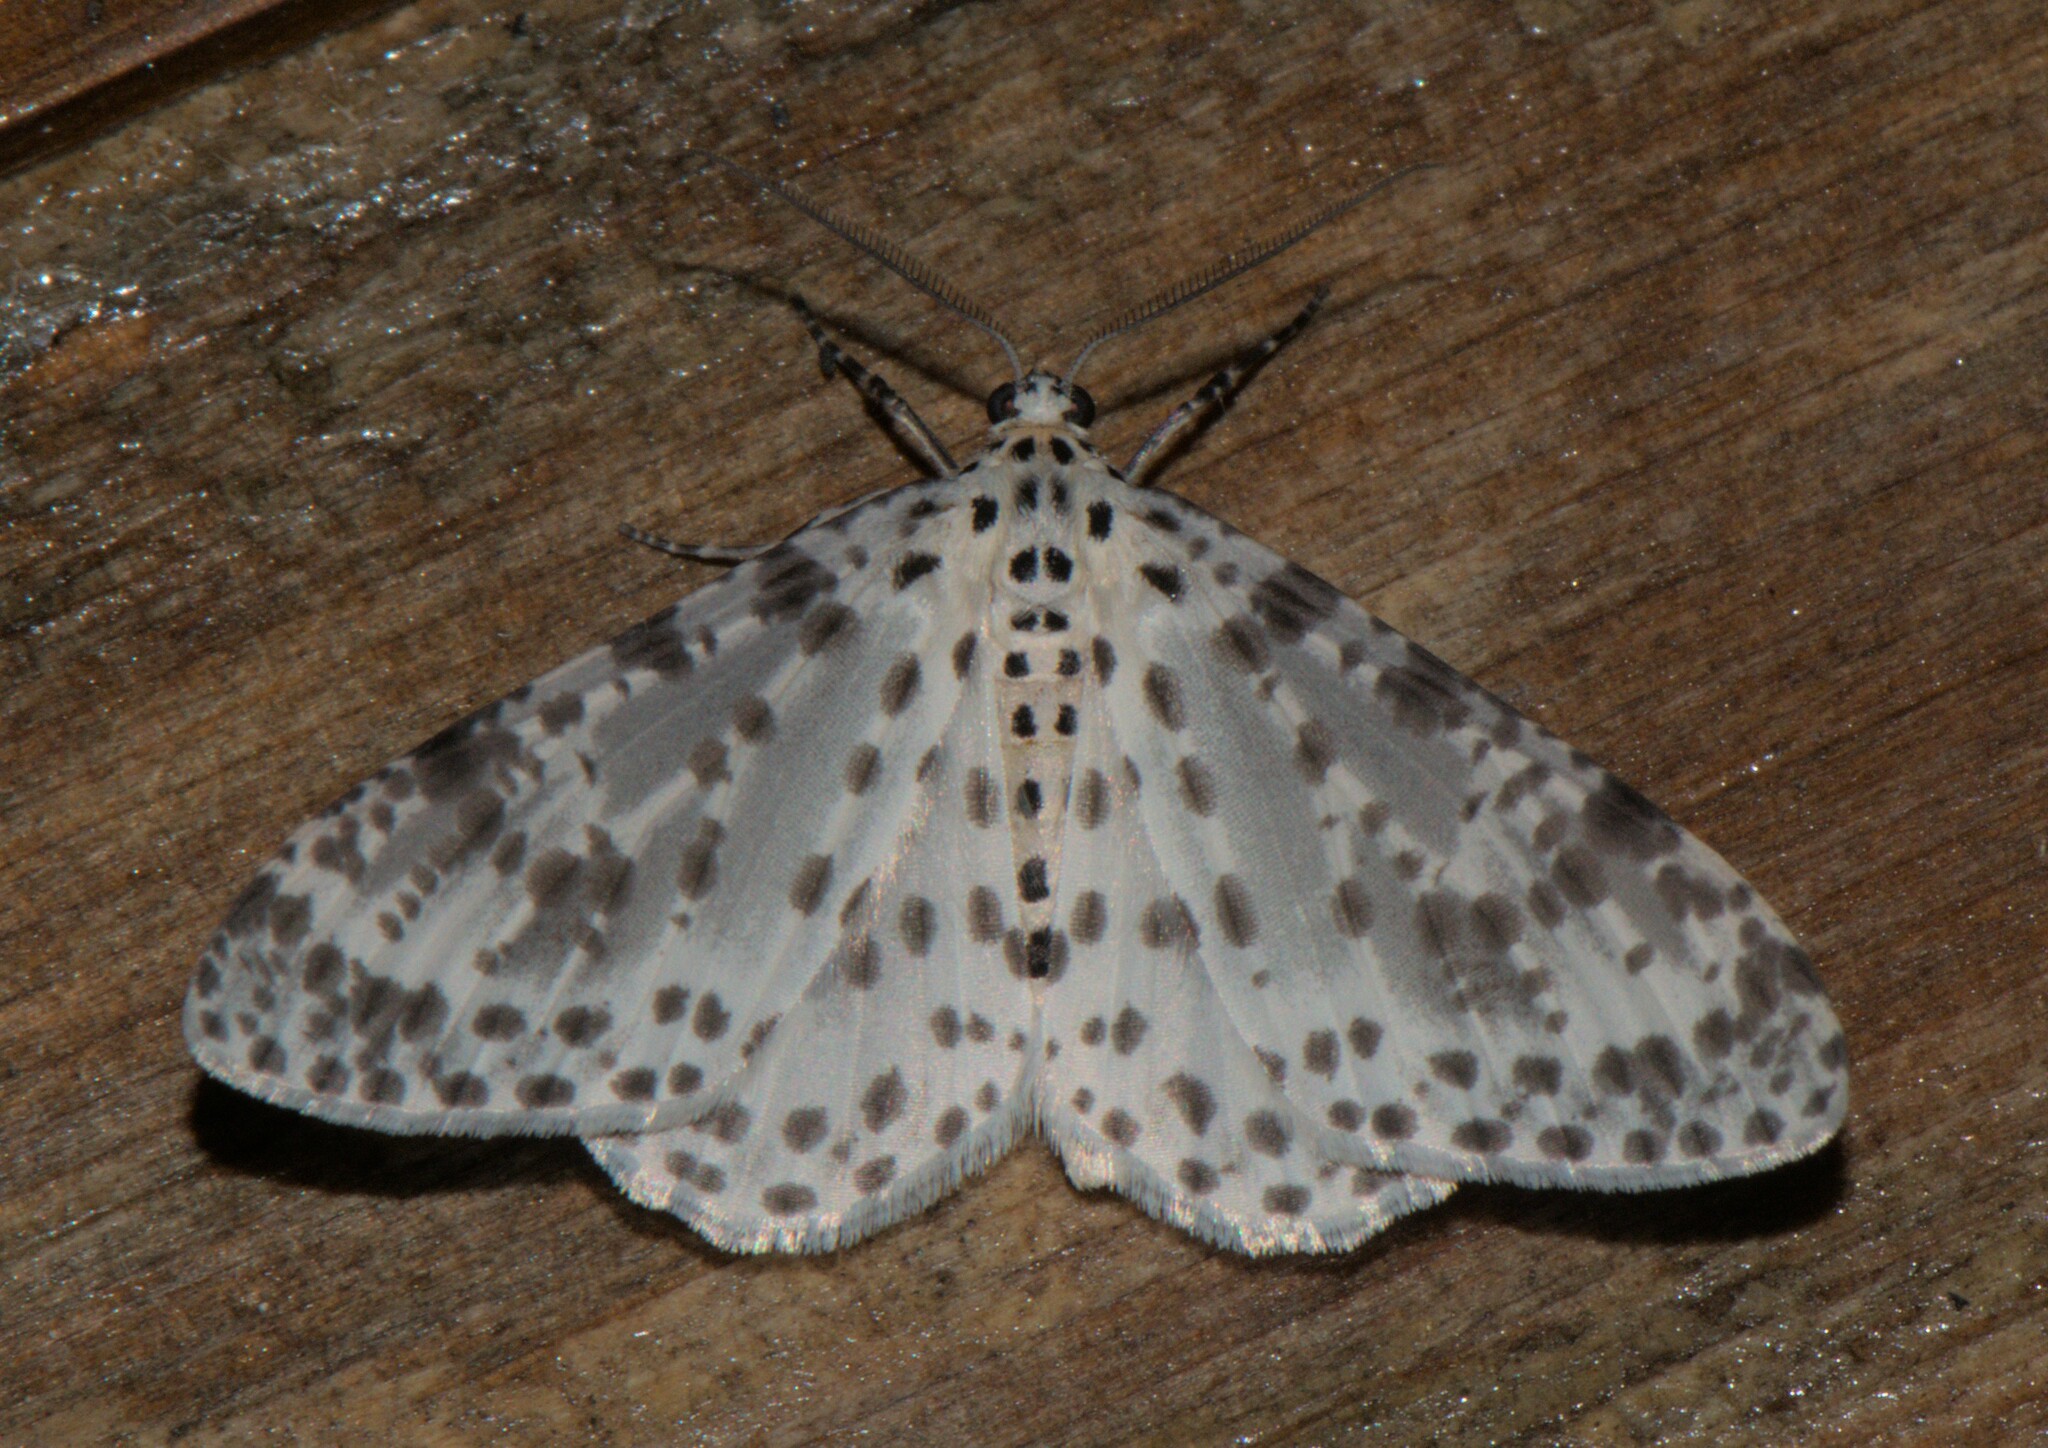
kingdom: Animalia
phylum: Arthropoda
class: Insecta
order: Lepidoptera
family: Geometridae
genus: Xenoplia
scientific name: Xenoplia maculata
